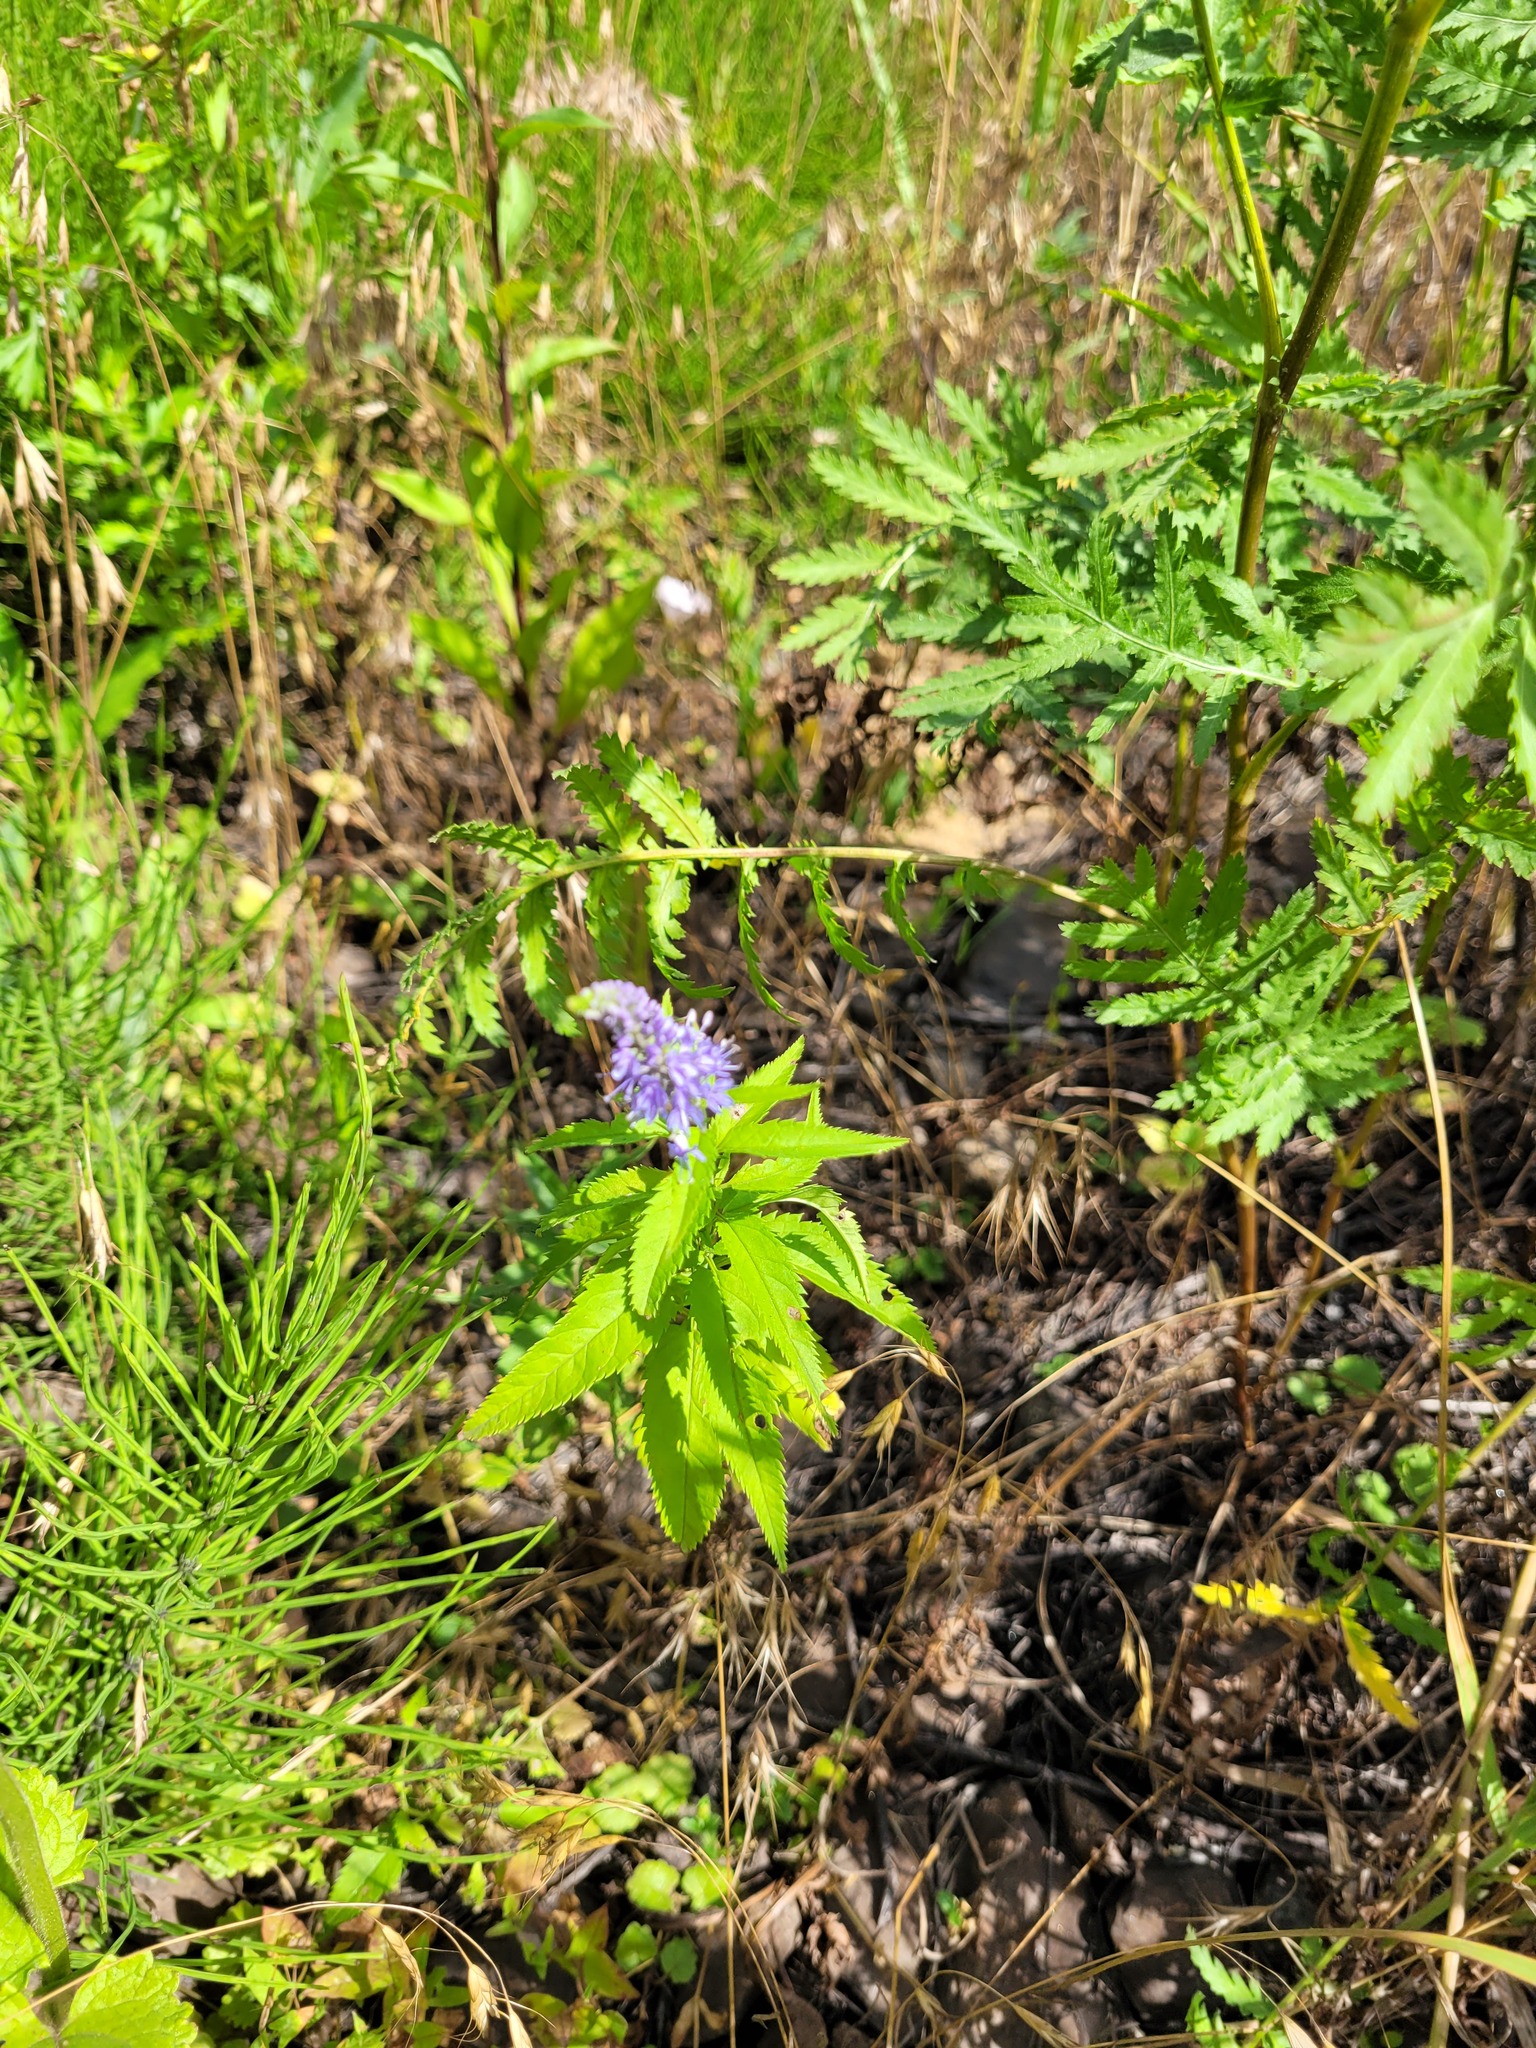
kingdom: Plantae
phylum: Tracheophyta
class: Magnoliopsida
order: Lamiales
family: Plantaginaceae
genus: Veronica
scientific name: Veronica longifolia
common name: Garden speedwell
